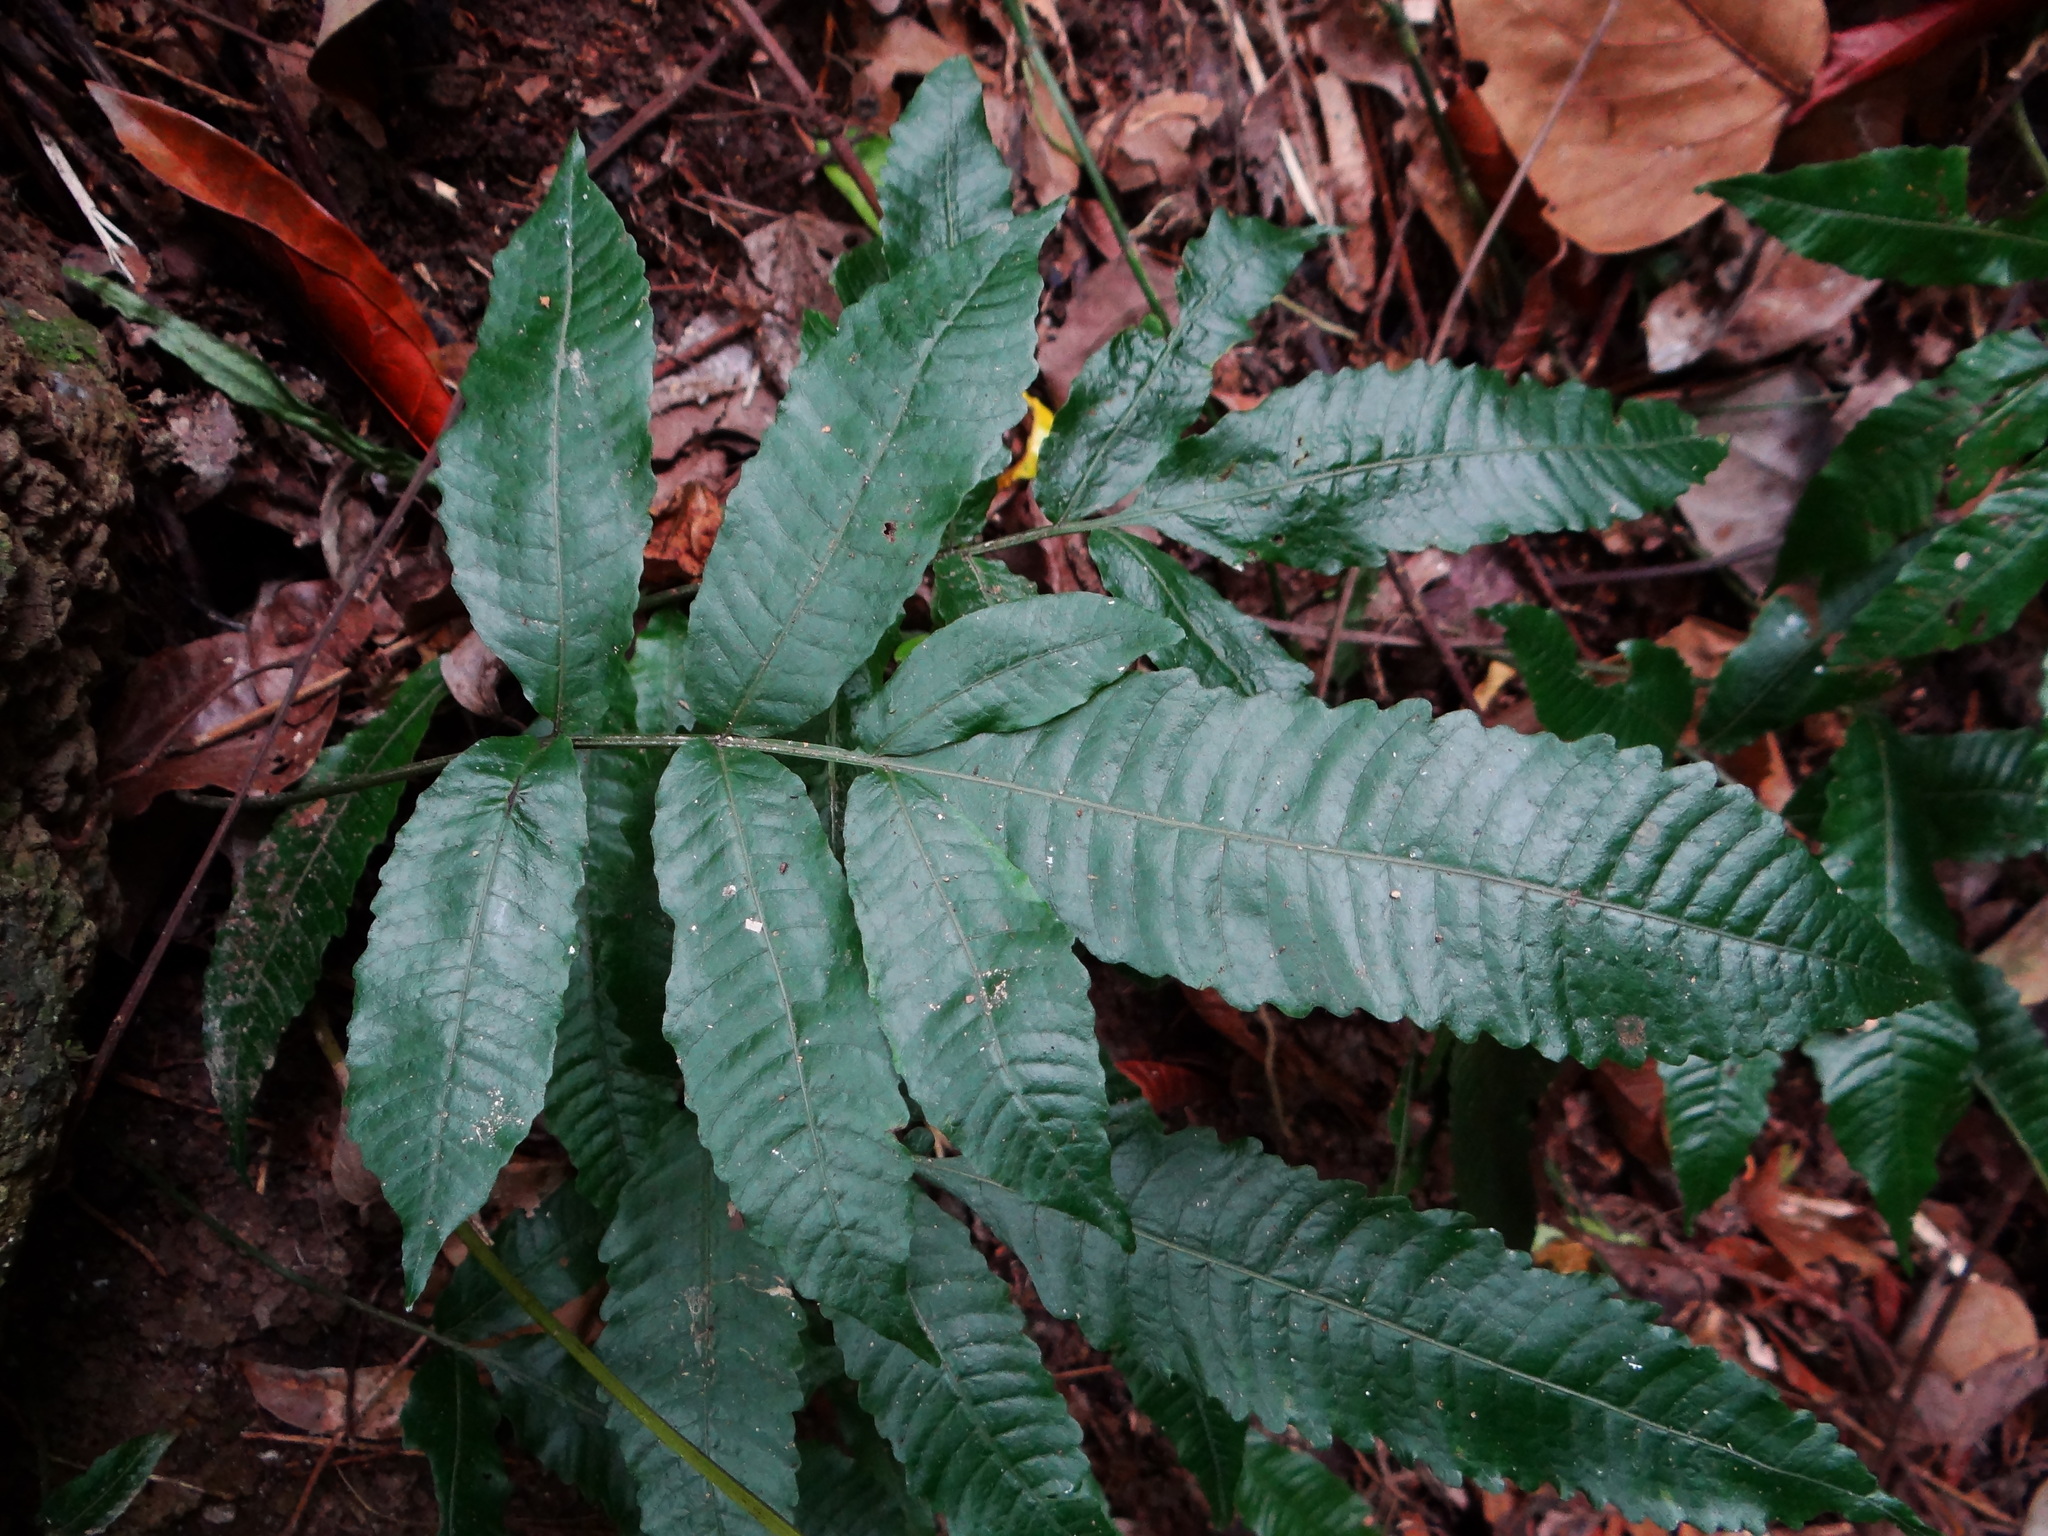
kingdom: Plantae
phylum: Tracheophyta
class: Polypodiopsida
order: Polypodiales
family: Dryopteridaceae
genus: Bolbitis
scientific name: Bolbitis heteroclita
